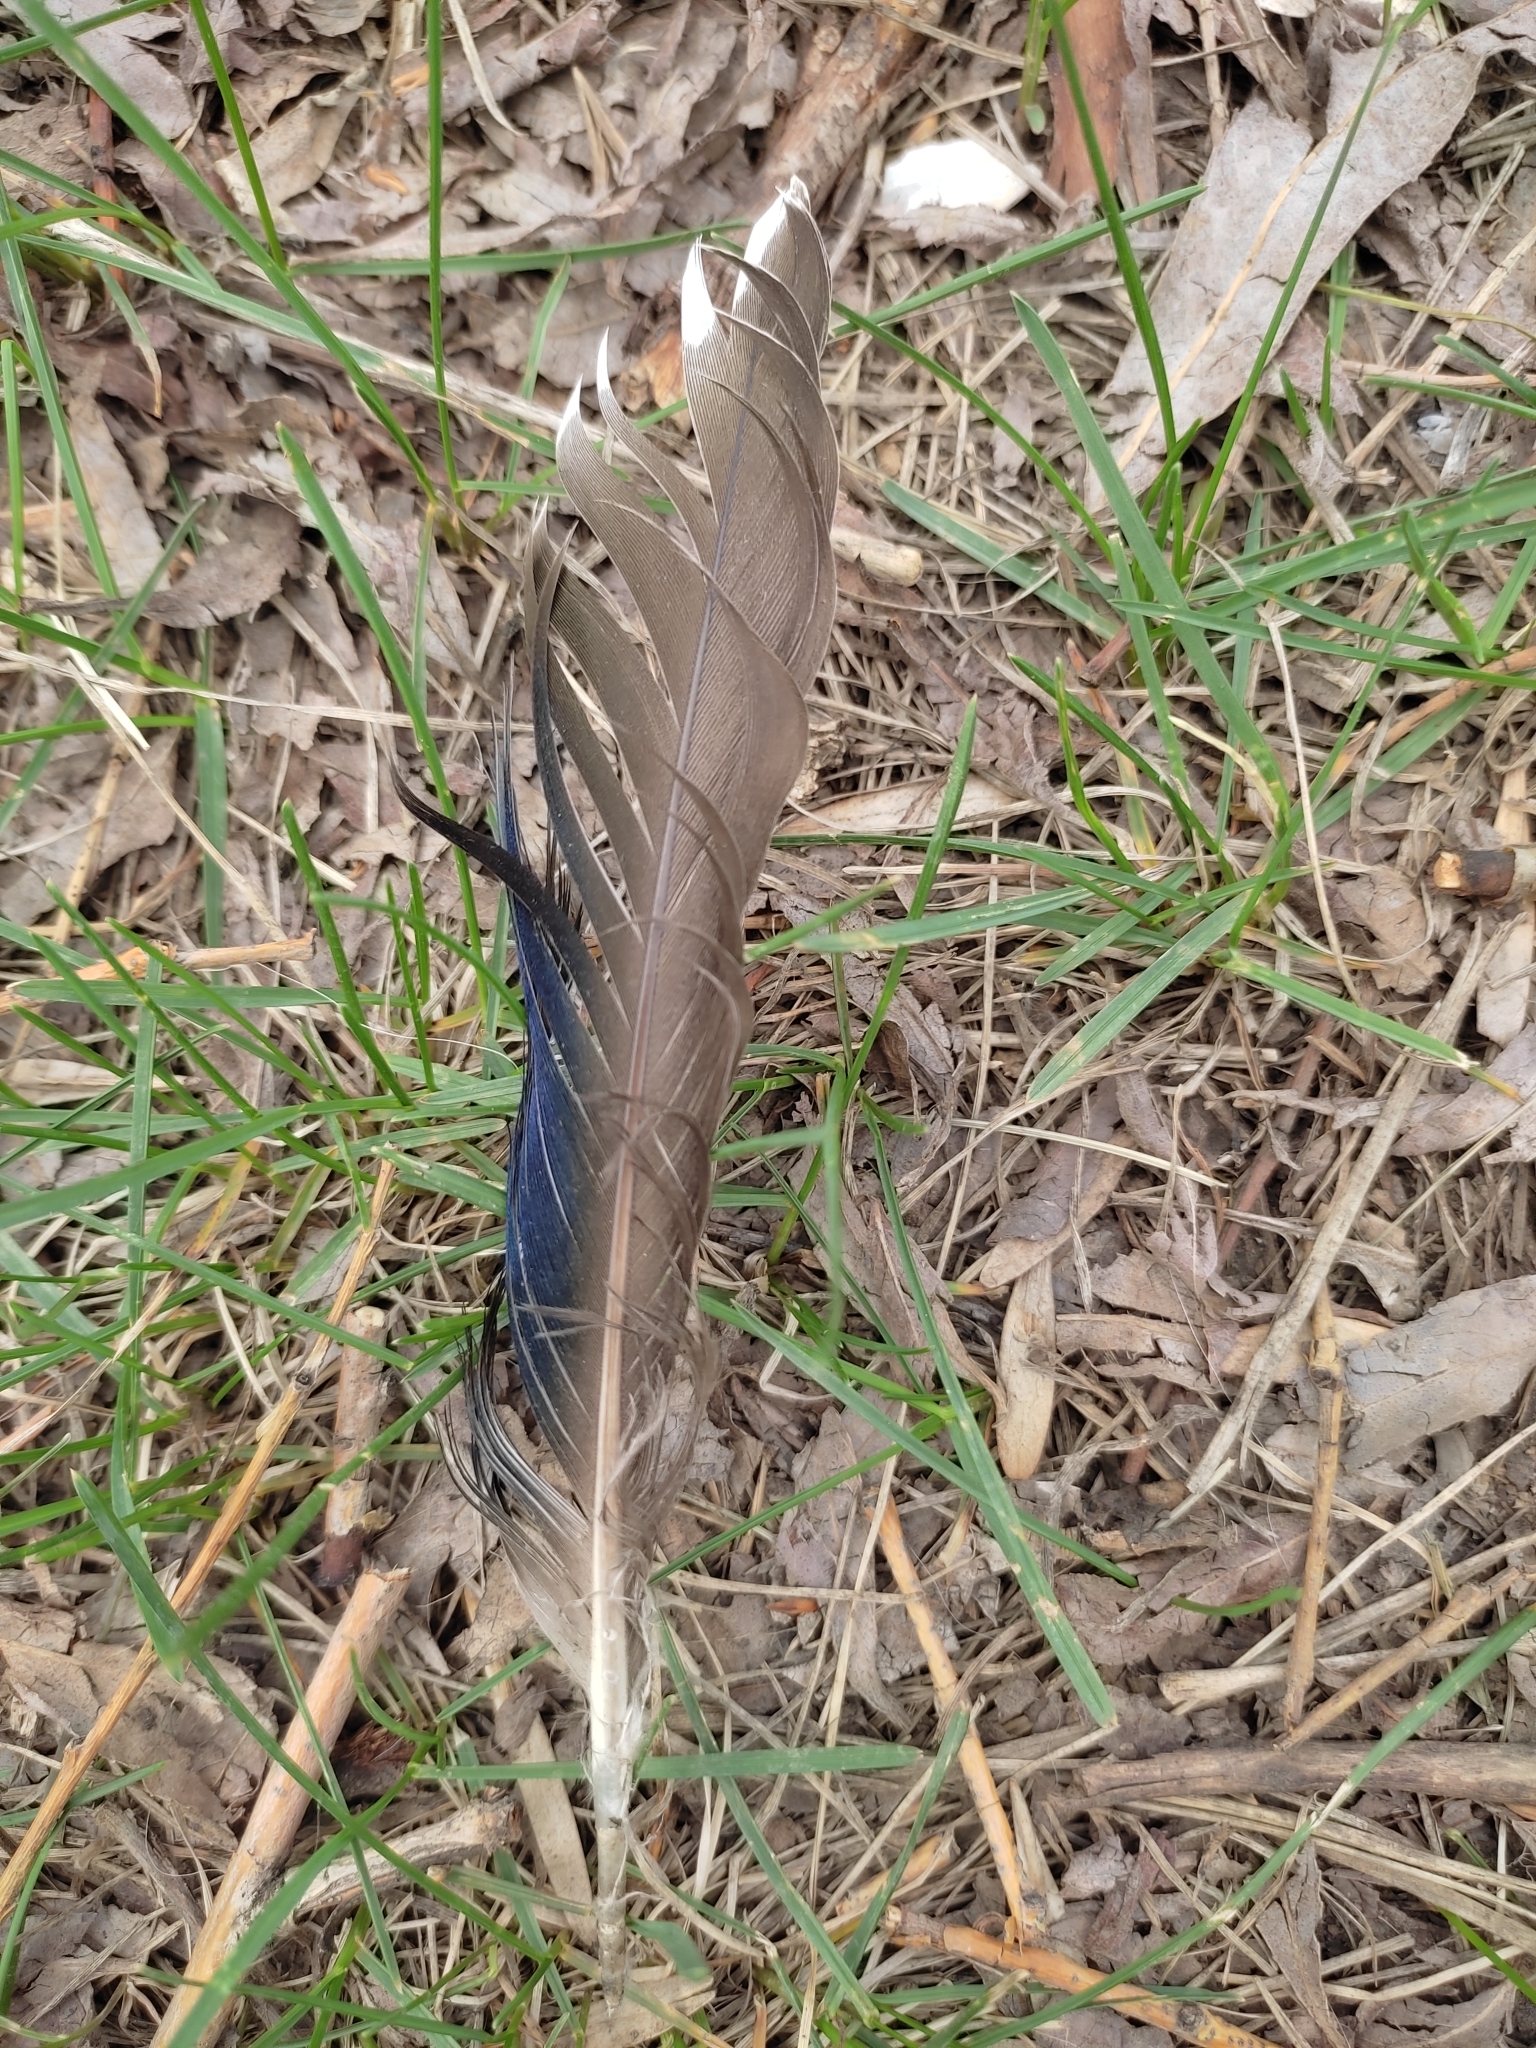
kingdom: Animalia
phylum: Chordata
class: Aves
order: Anseriformes
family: Anatidae
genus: Anas
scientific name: Anas platyrhynchos
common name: Mallard
